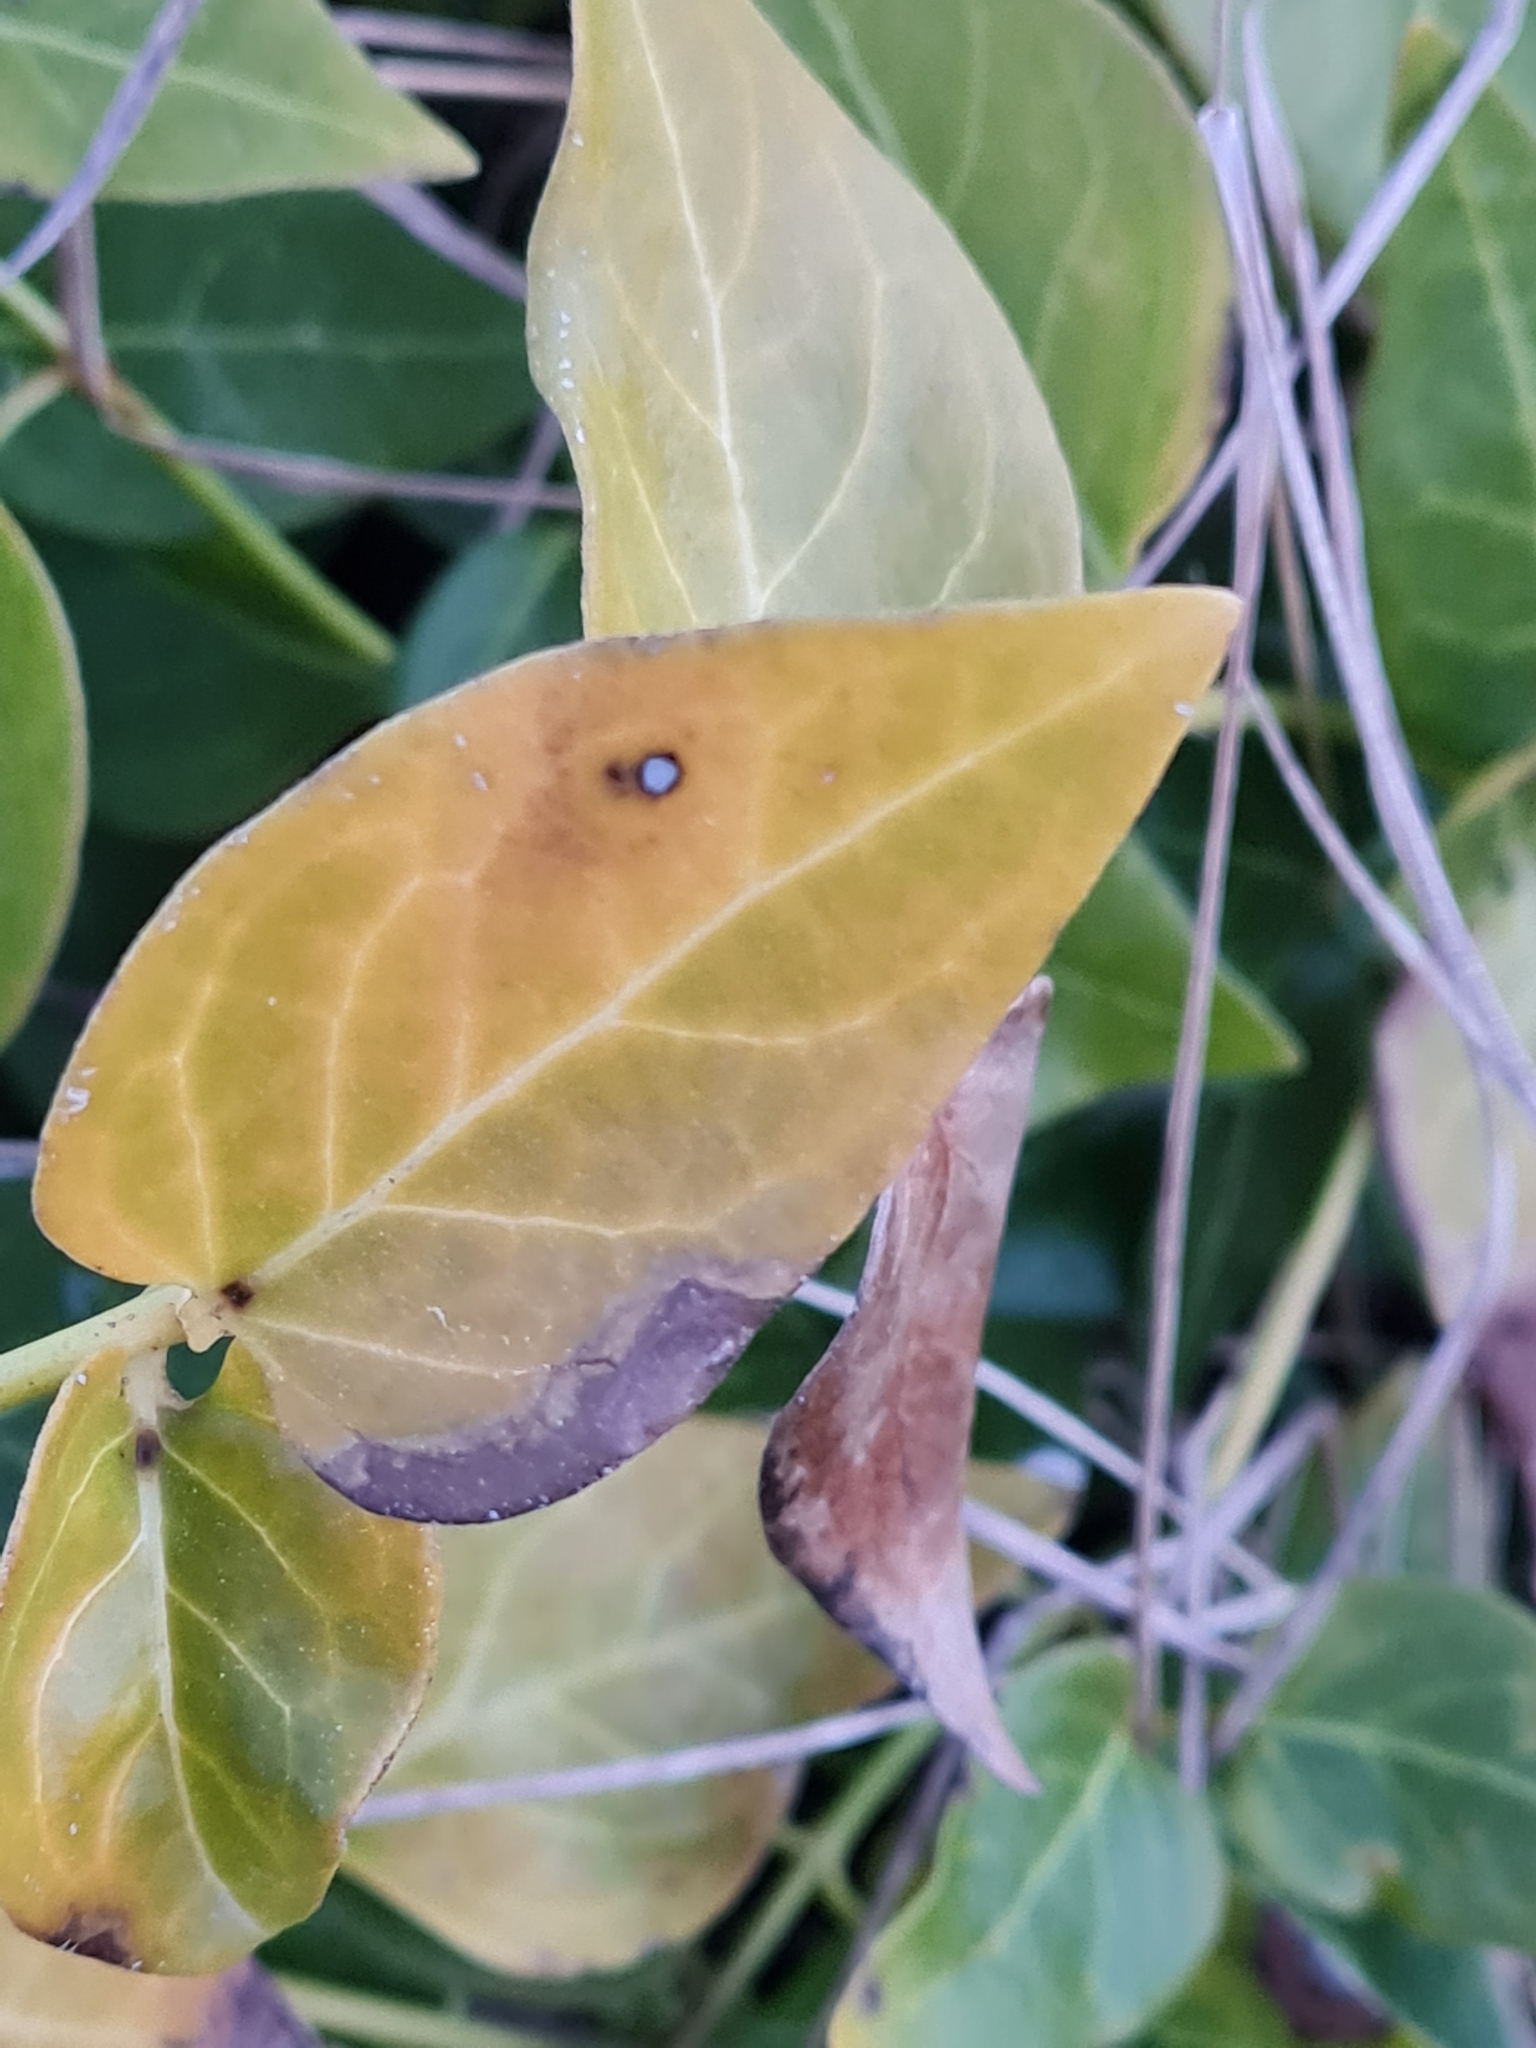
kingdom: Plantae
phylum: Tracheophyta
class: Magnoliopsida
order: Gentianales
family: Apocynaceae
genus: Vinca
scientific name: Vinca major
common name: Greater periwinkle
